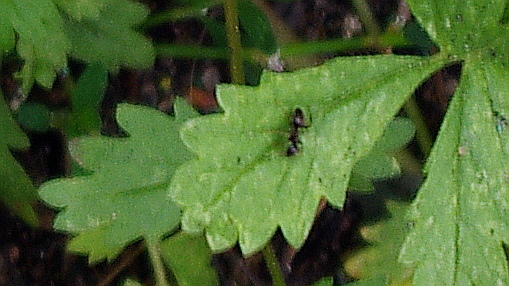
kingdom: Animalia
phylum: Arthropoda
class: Insecta
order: Hymenoptera
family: Formicidae
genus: Lasius
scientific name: Lasius
